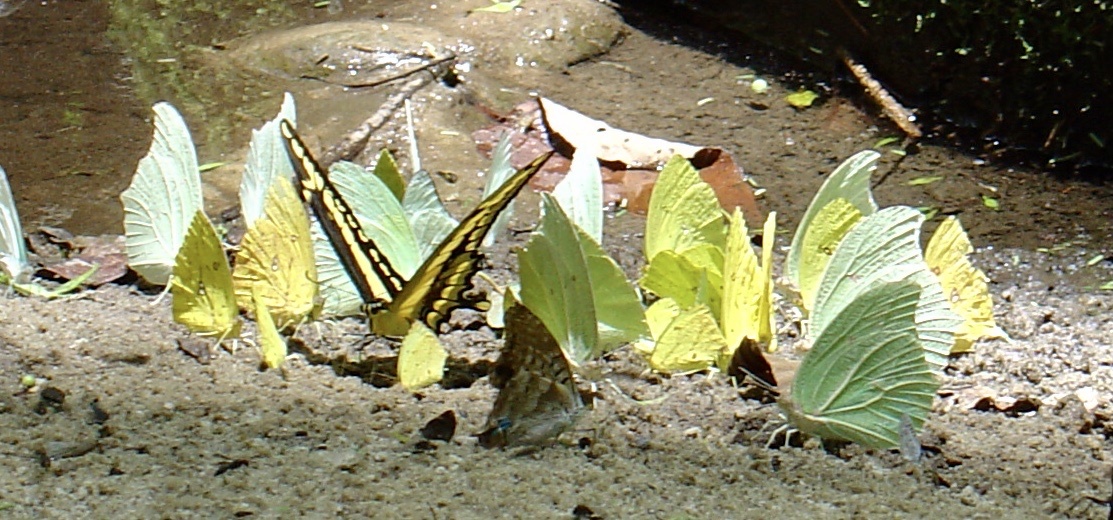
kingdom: Animalia
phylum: Arthropoda
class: Insecta
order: Lepidoptera
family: Papilionidae
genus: Papilio
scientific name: Papilio thoas
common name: King swallowtail
